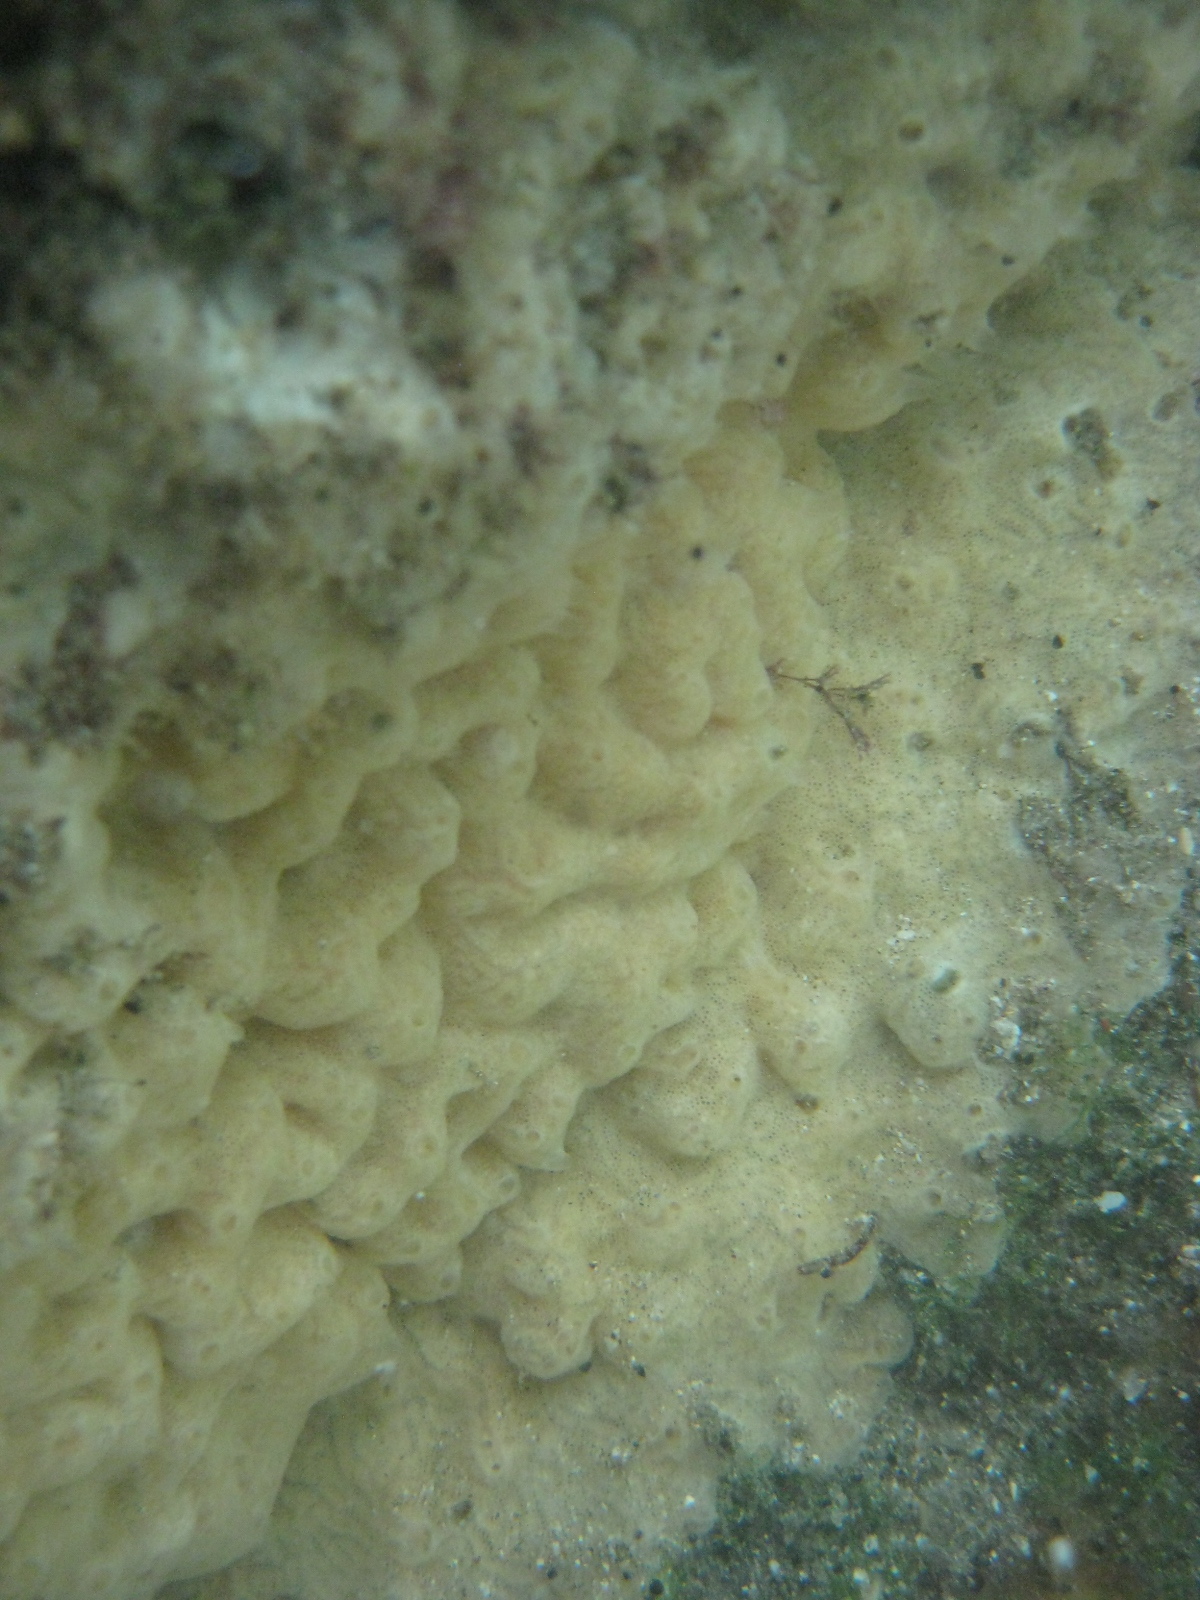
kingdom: Animalia
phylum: Chordata
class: Ascidiacea
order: Aplousobranchia
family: Didemnidae
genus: Didemnum
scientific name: Didemnum vexillum
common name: Compound sea squirt
